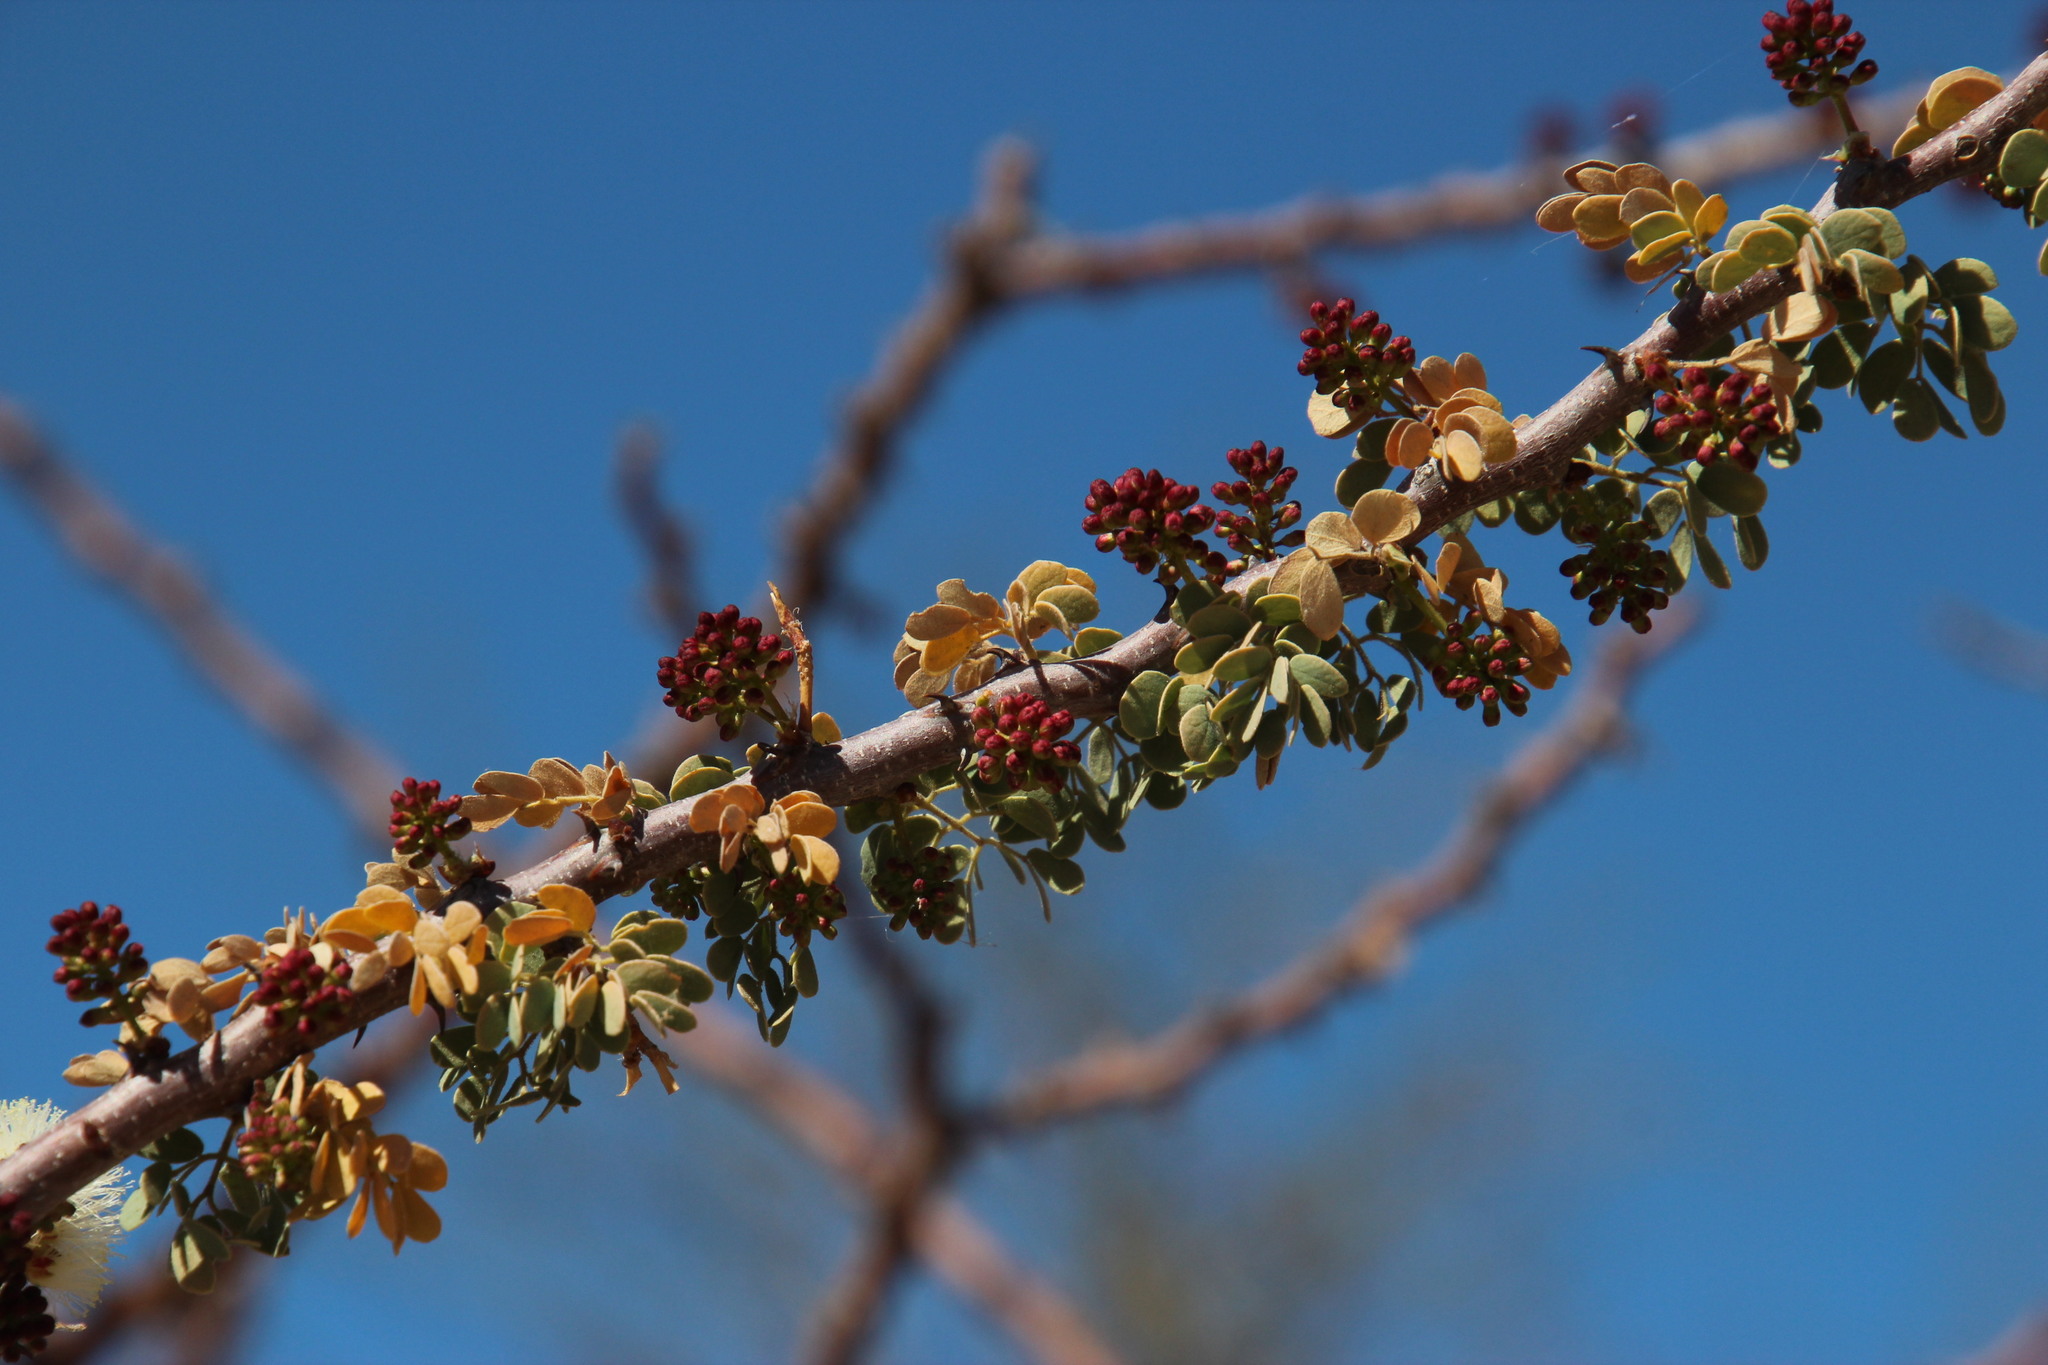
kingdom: Plantae
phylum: Tracheophyta
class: Magnoliopsida
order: Fabales
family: Fabaceae
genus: Senegalia
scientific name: Senegalia mellifera
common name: Hookthorn
